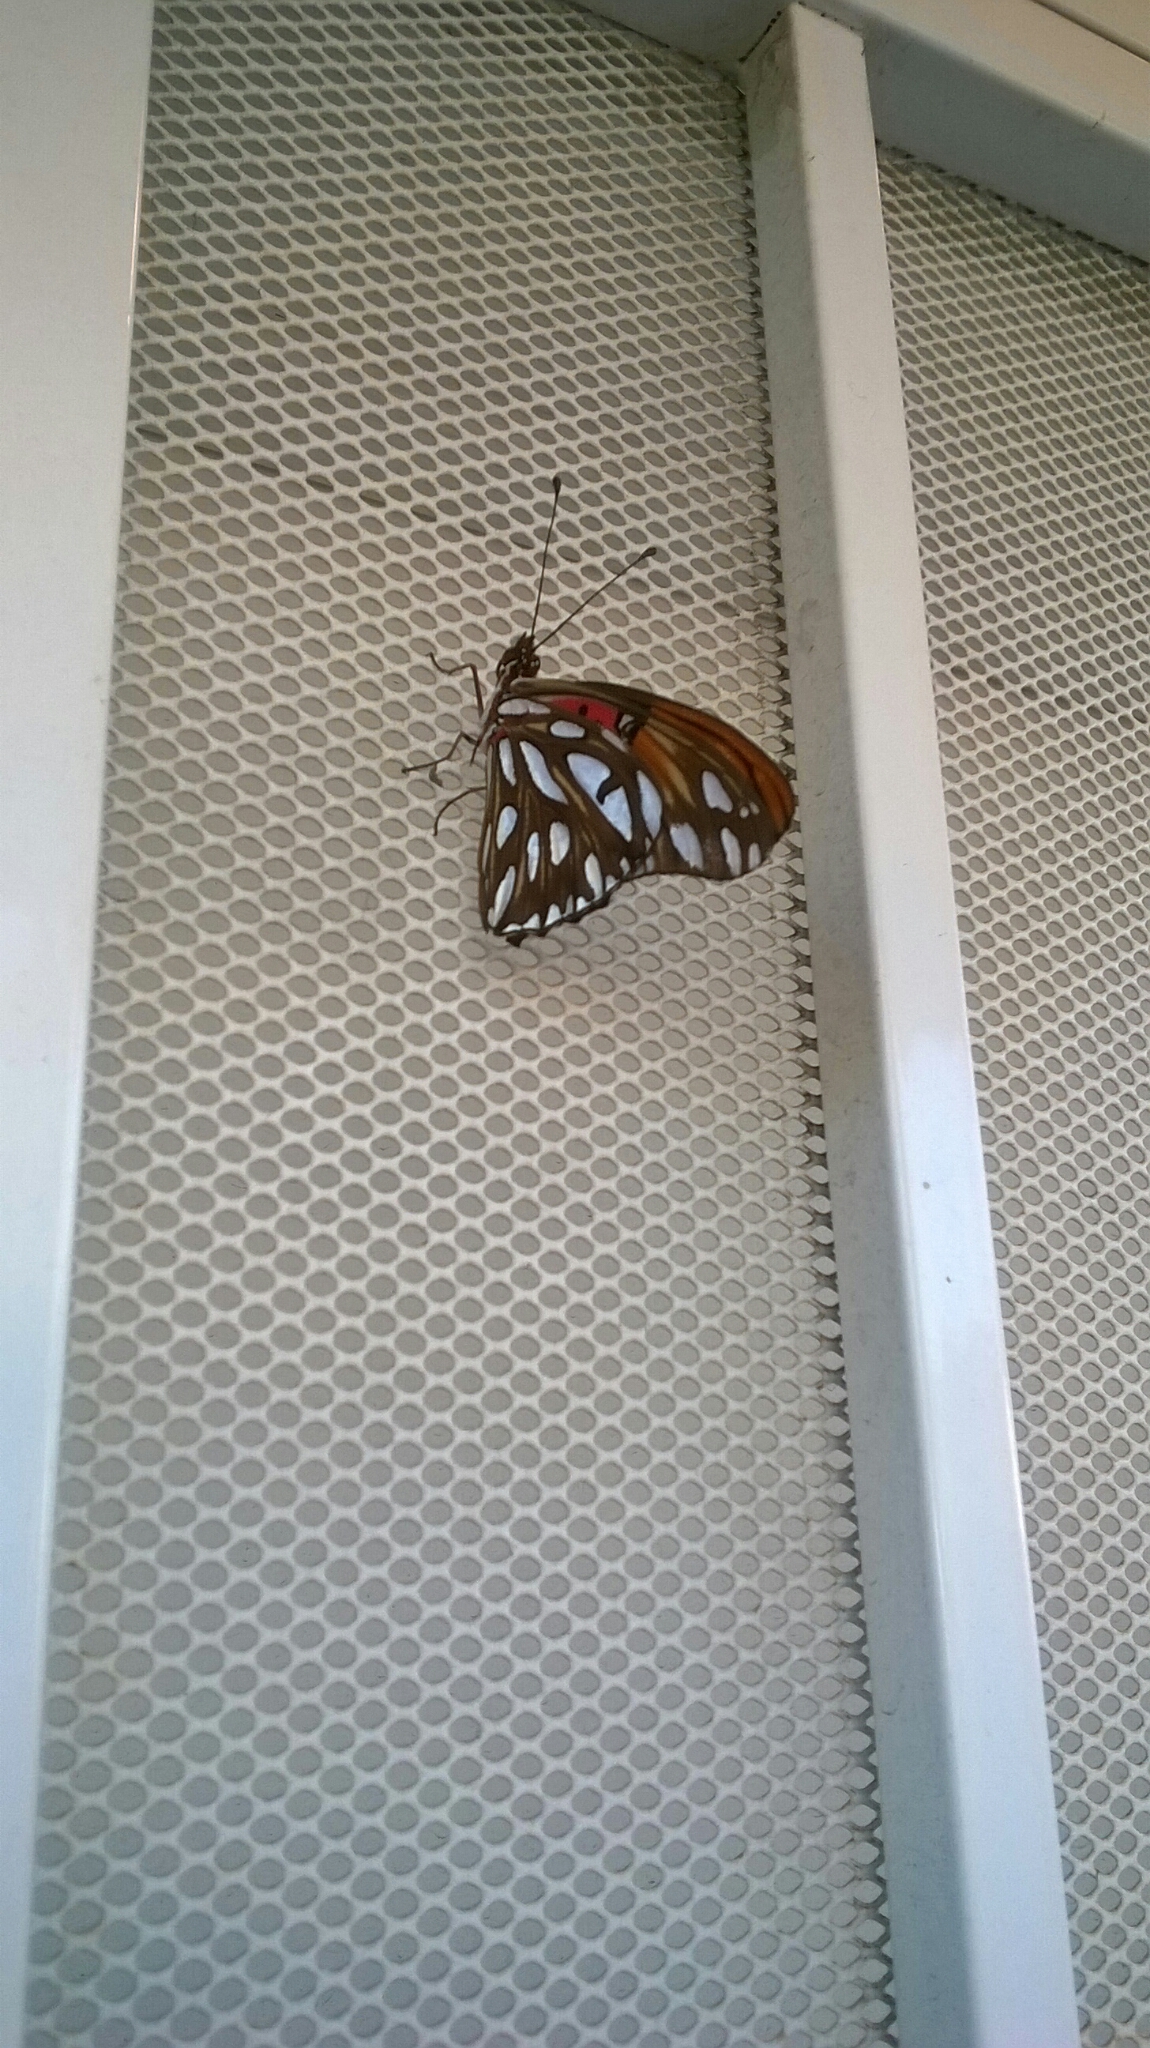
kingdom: Animalia
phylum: Arthropoda
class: Insecta
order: Lepidoptera
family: Nymphalidae
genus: Dione
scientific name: Dione vanillae
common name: Gulf fritillary
